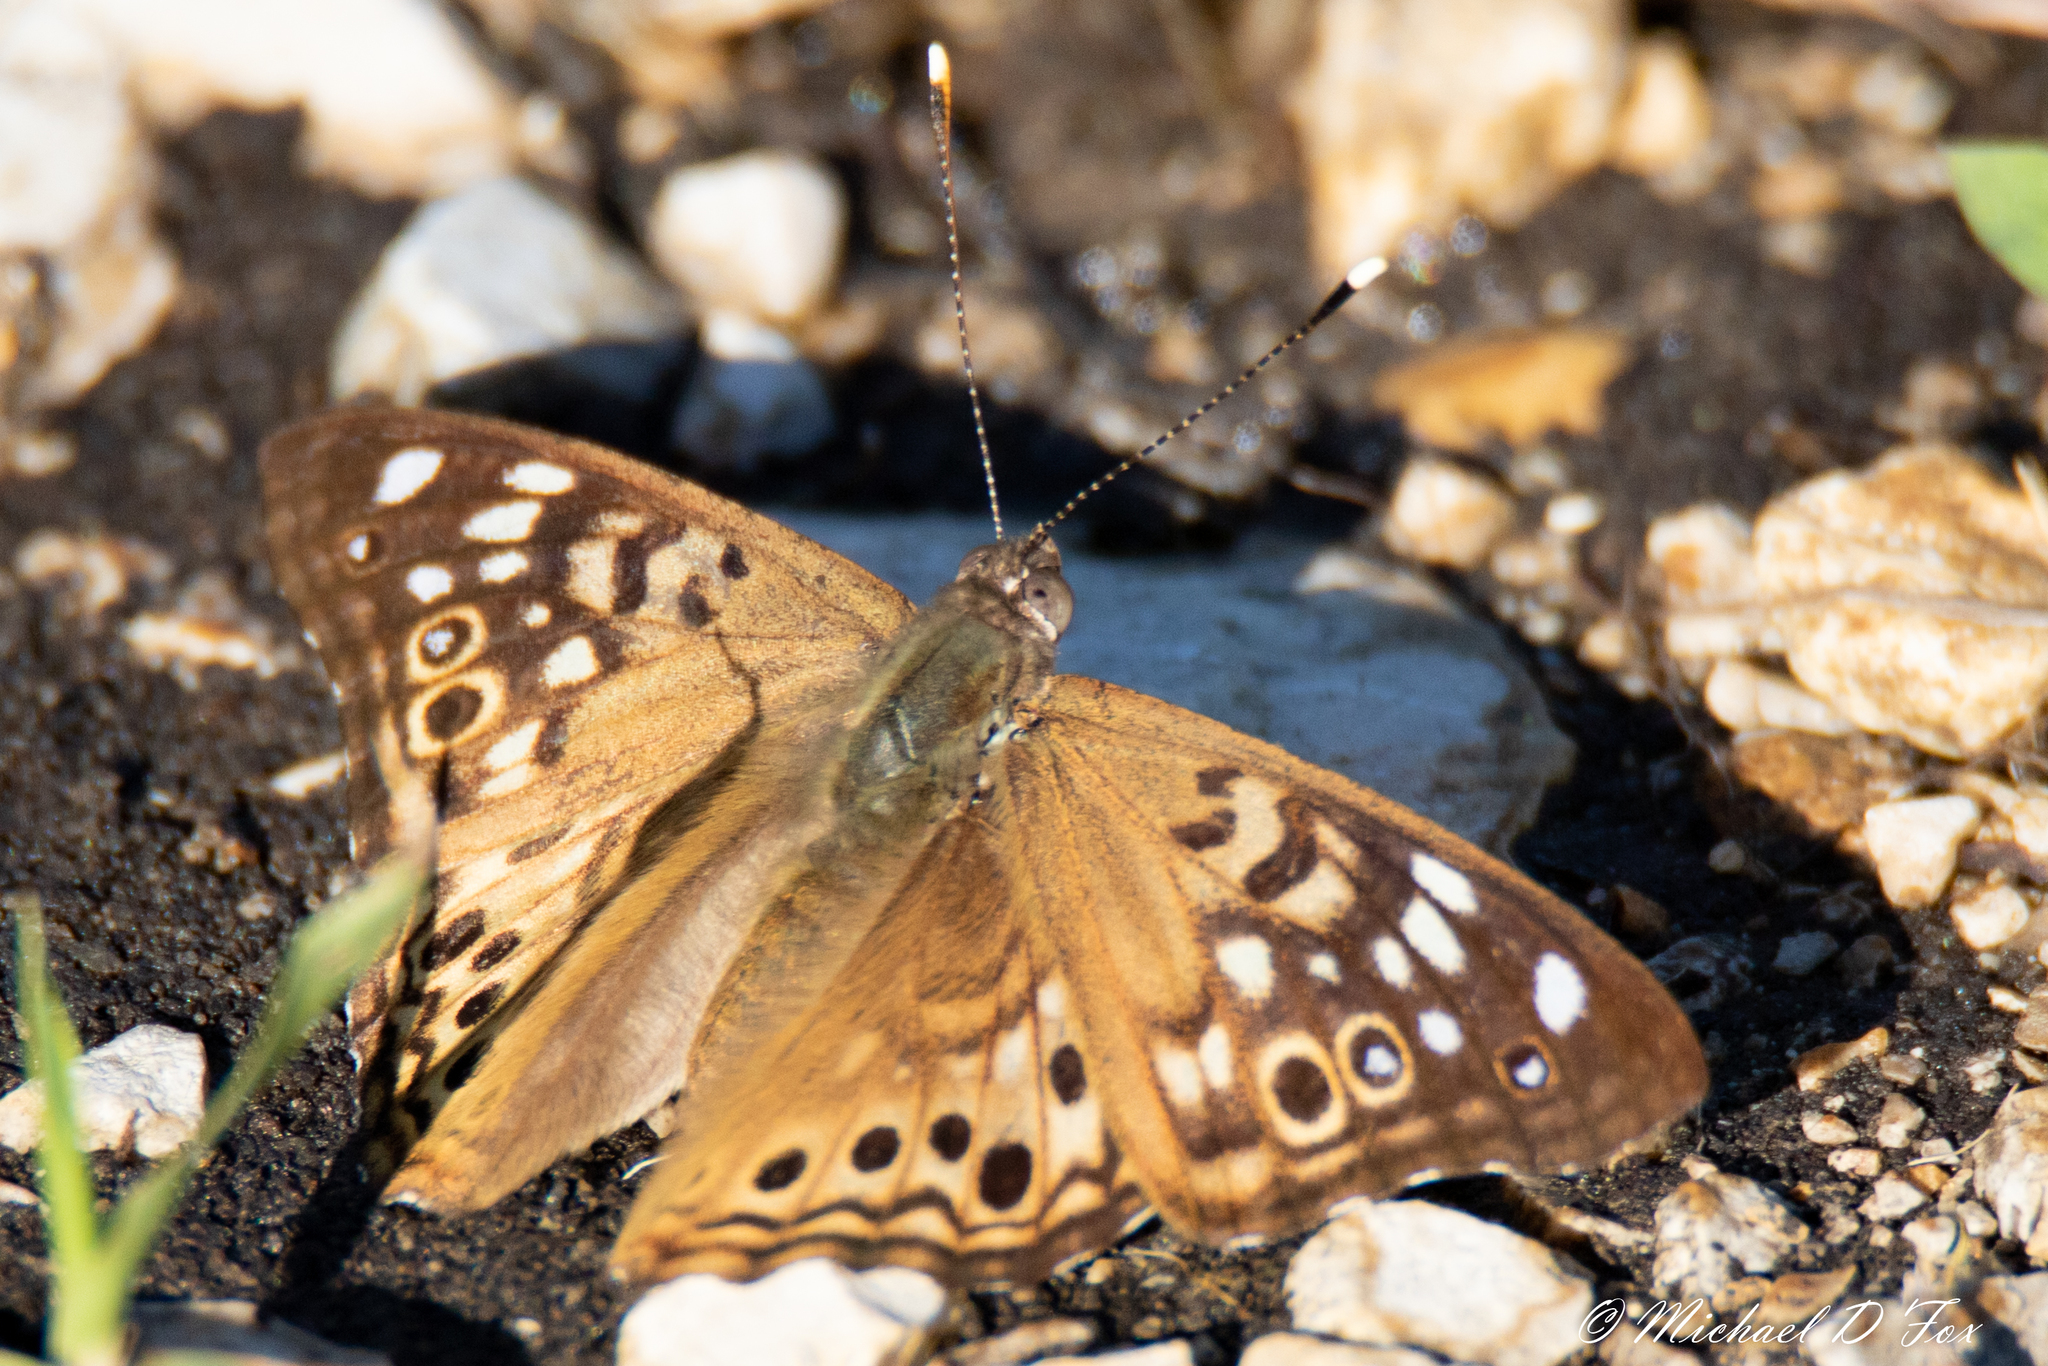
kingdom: Animalia
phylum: Arthropoda
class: Insecta
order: Lepidoptera
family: Nymphalidae
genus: Asterocampa
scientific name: Asterocampa celtis
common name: Hackberry emperor
